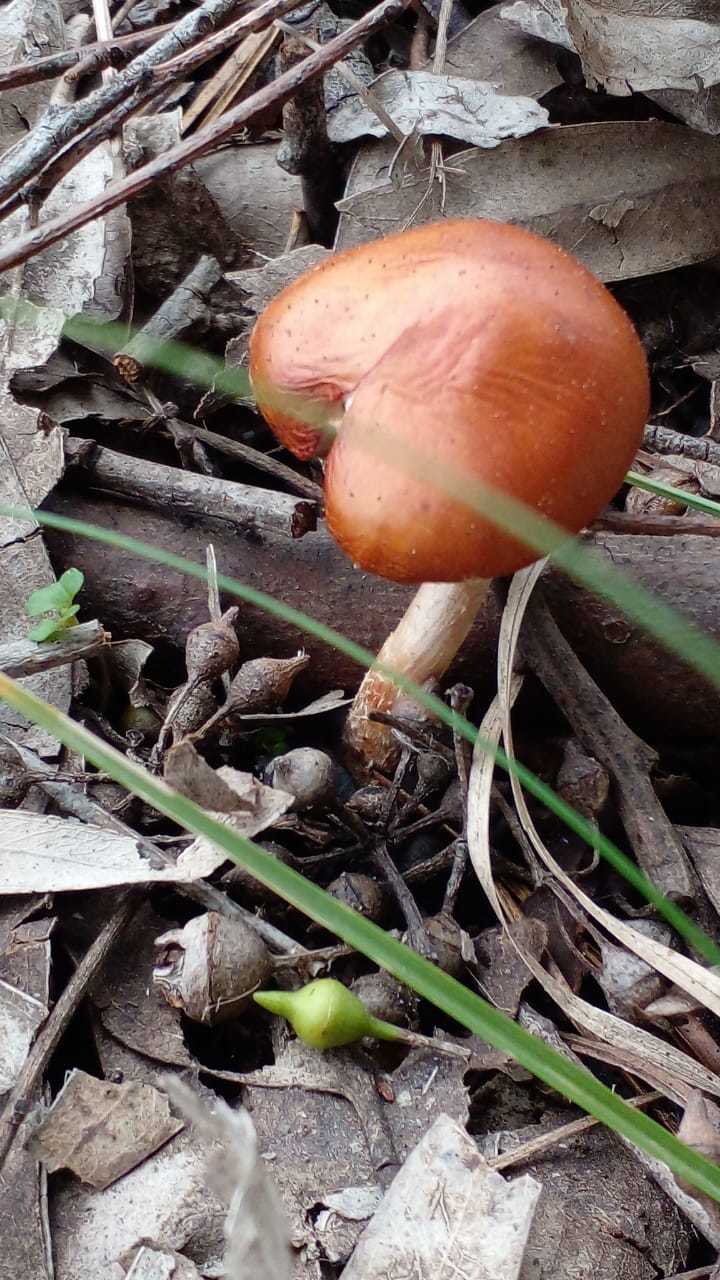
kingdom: Fungi
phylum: Basidiomycota
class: Agaricomycetes
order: Agaricales
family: Strophariaceae
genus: Leratiomyces
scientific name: Leratiomyces ceres
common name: Redlead roundhead
